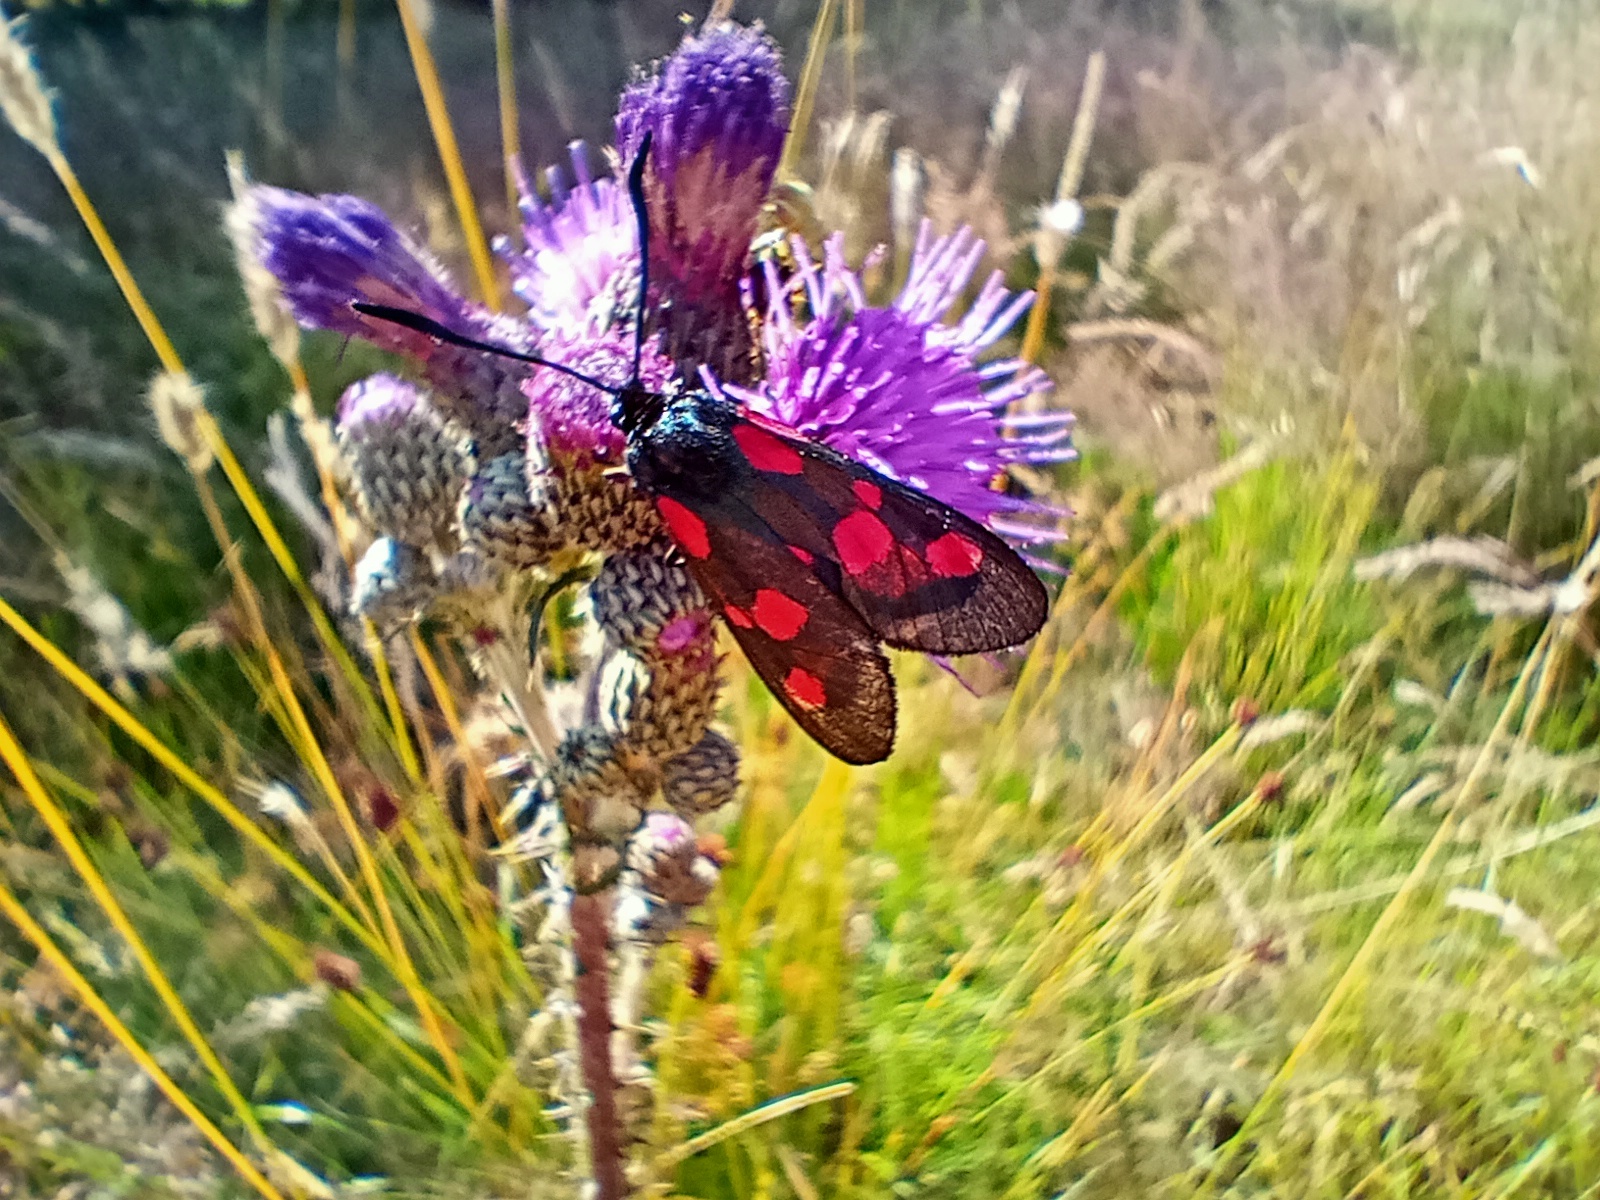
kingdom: Animalia
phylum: Arthropoda
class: Insecta
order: Lepidoptera
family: Zygaenidae
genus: Zygaena
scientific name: Zygaena viciae
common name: New forest burnet
